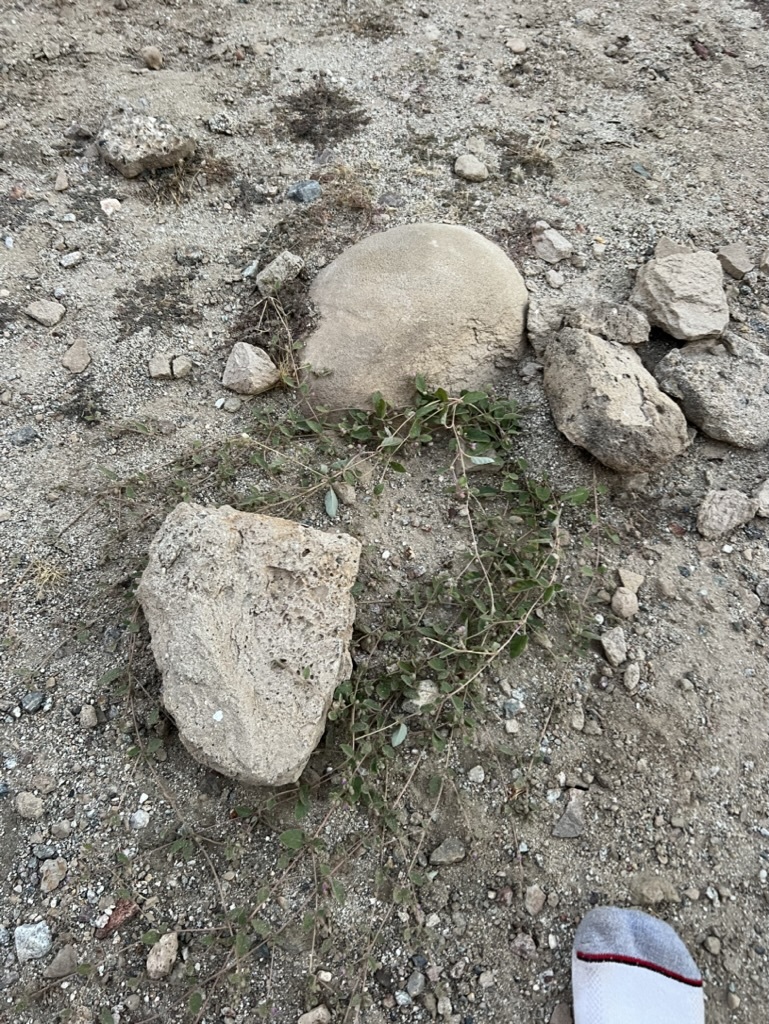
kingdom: Plantae
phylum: Tracheophyta
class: Magnoliopsida
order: Caryophyllales
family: Nyctaginaceae
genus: Allionia
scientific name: Allionia incarnata
